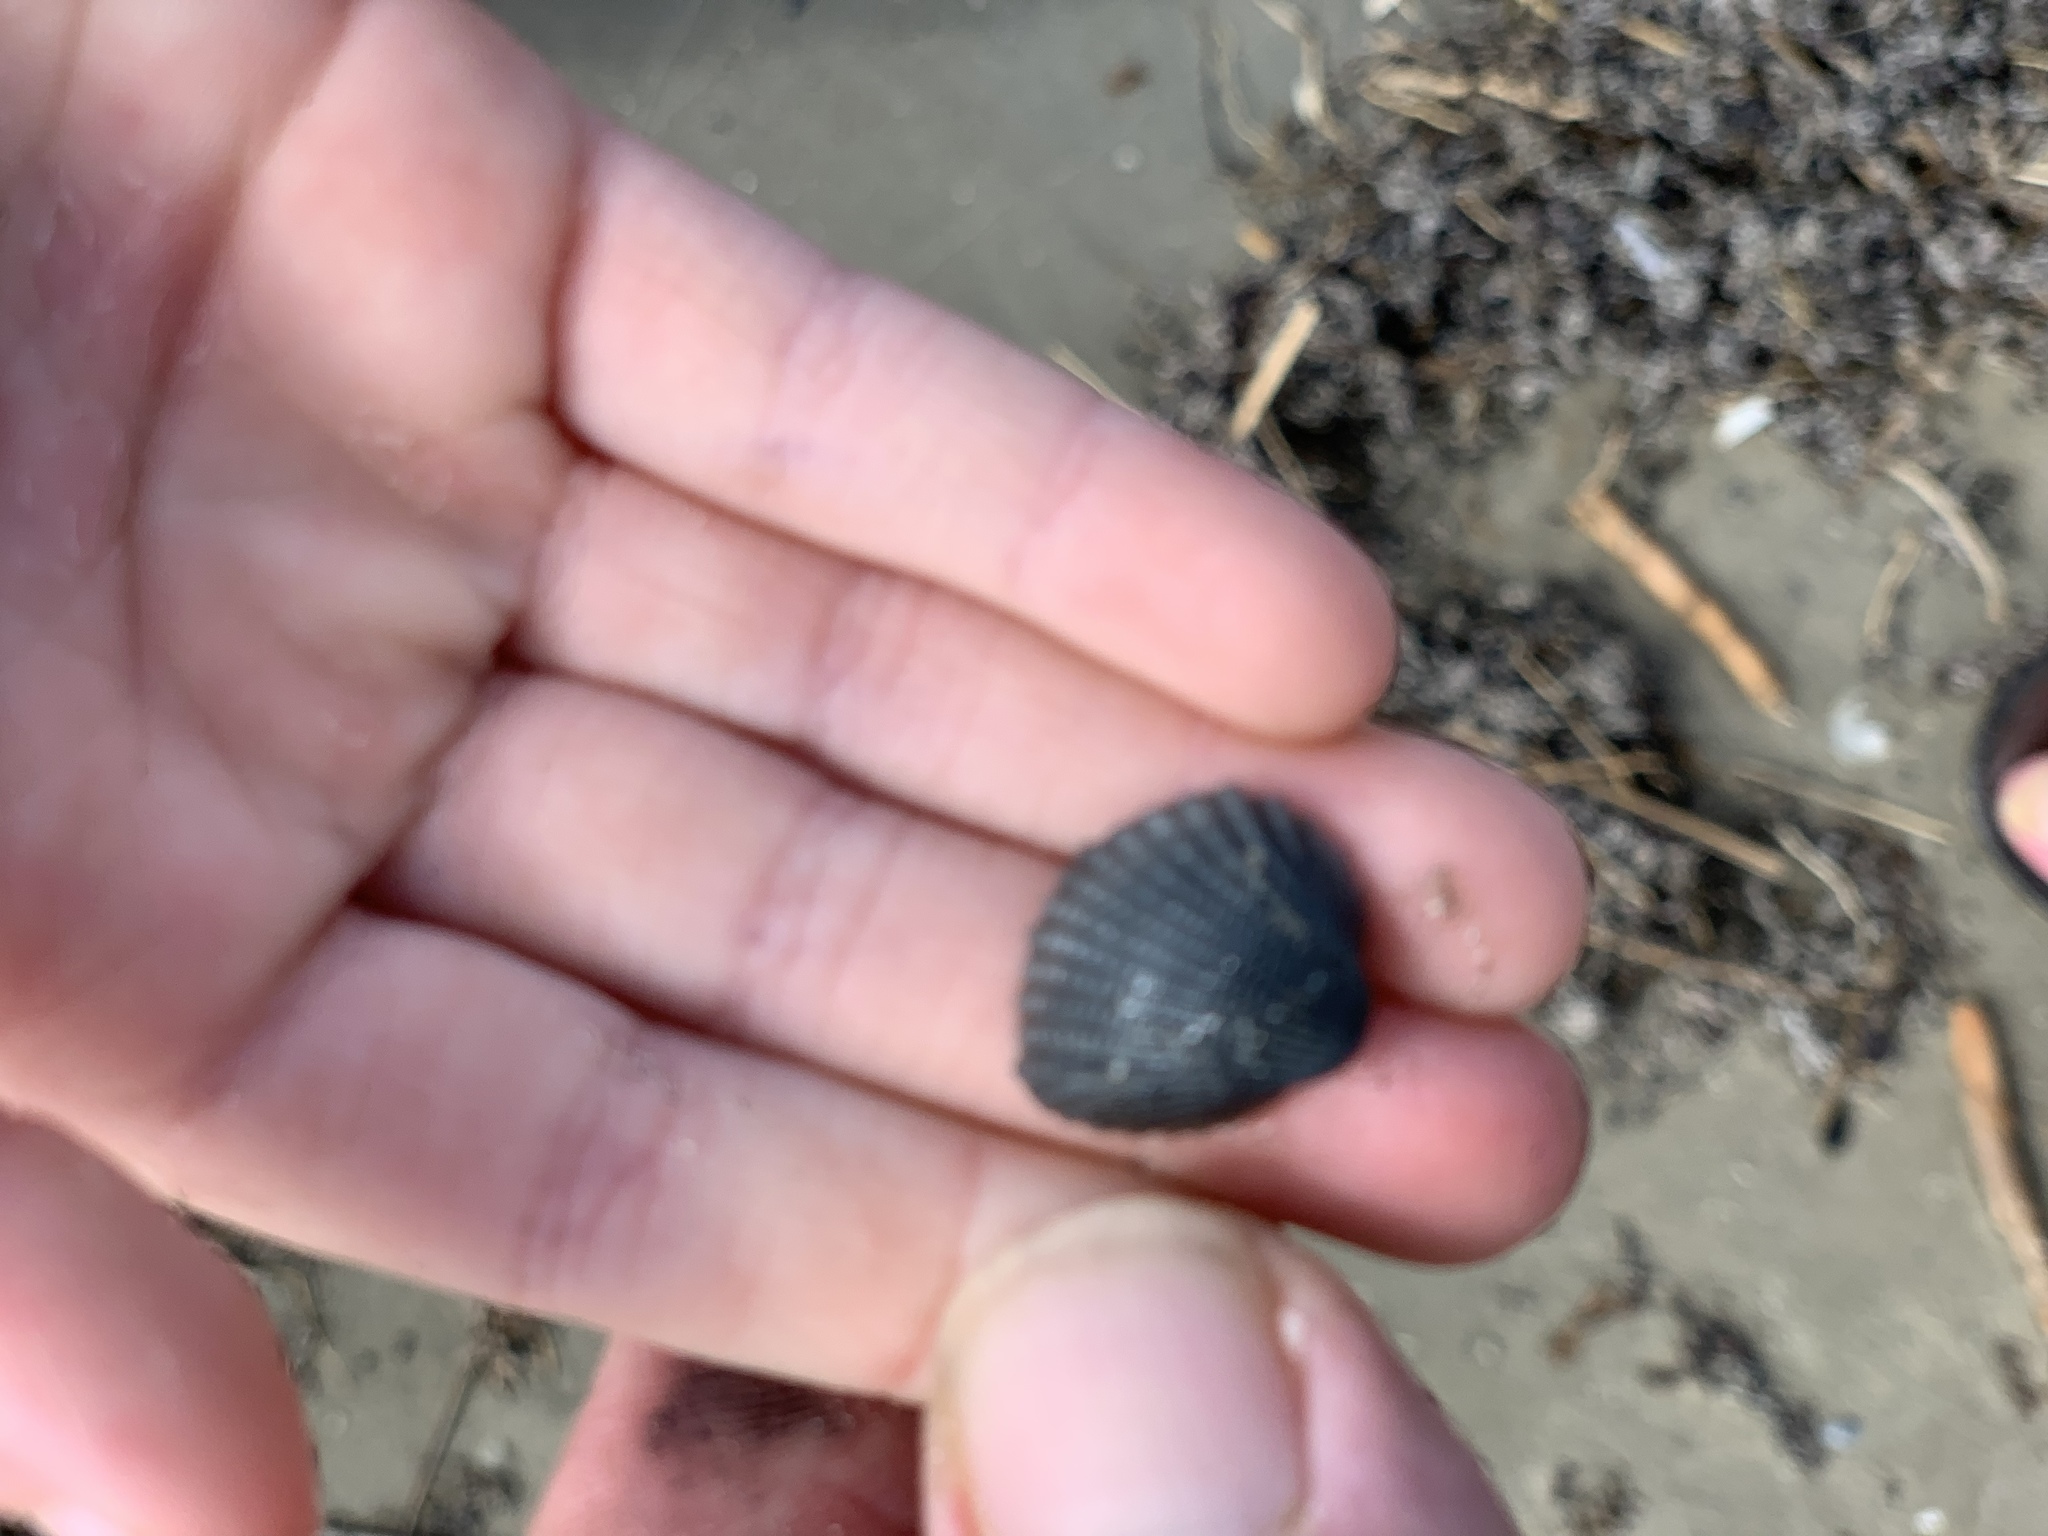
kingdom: Animalia
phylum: Mollusca
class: Bivalvia
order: Arcida
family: Arcidae
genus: Anadara
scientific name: Anadara brasiliana
